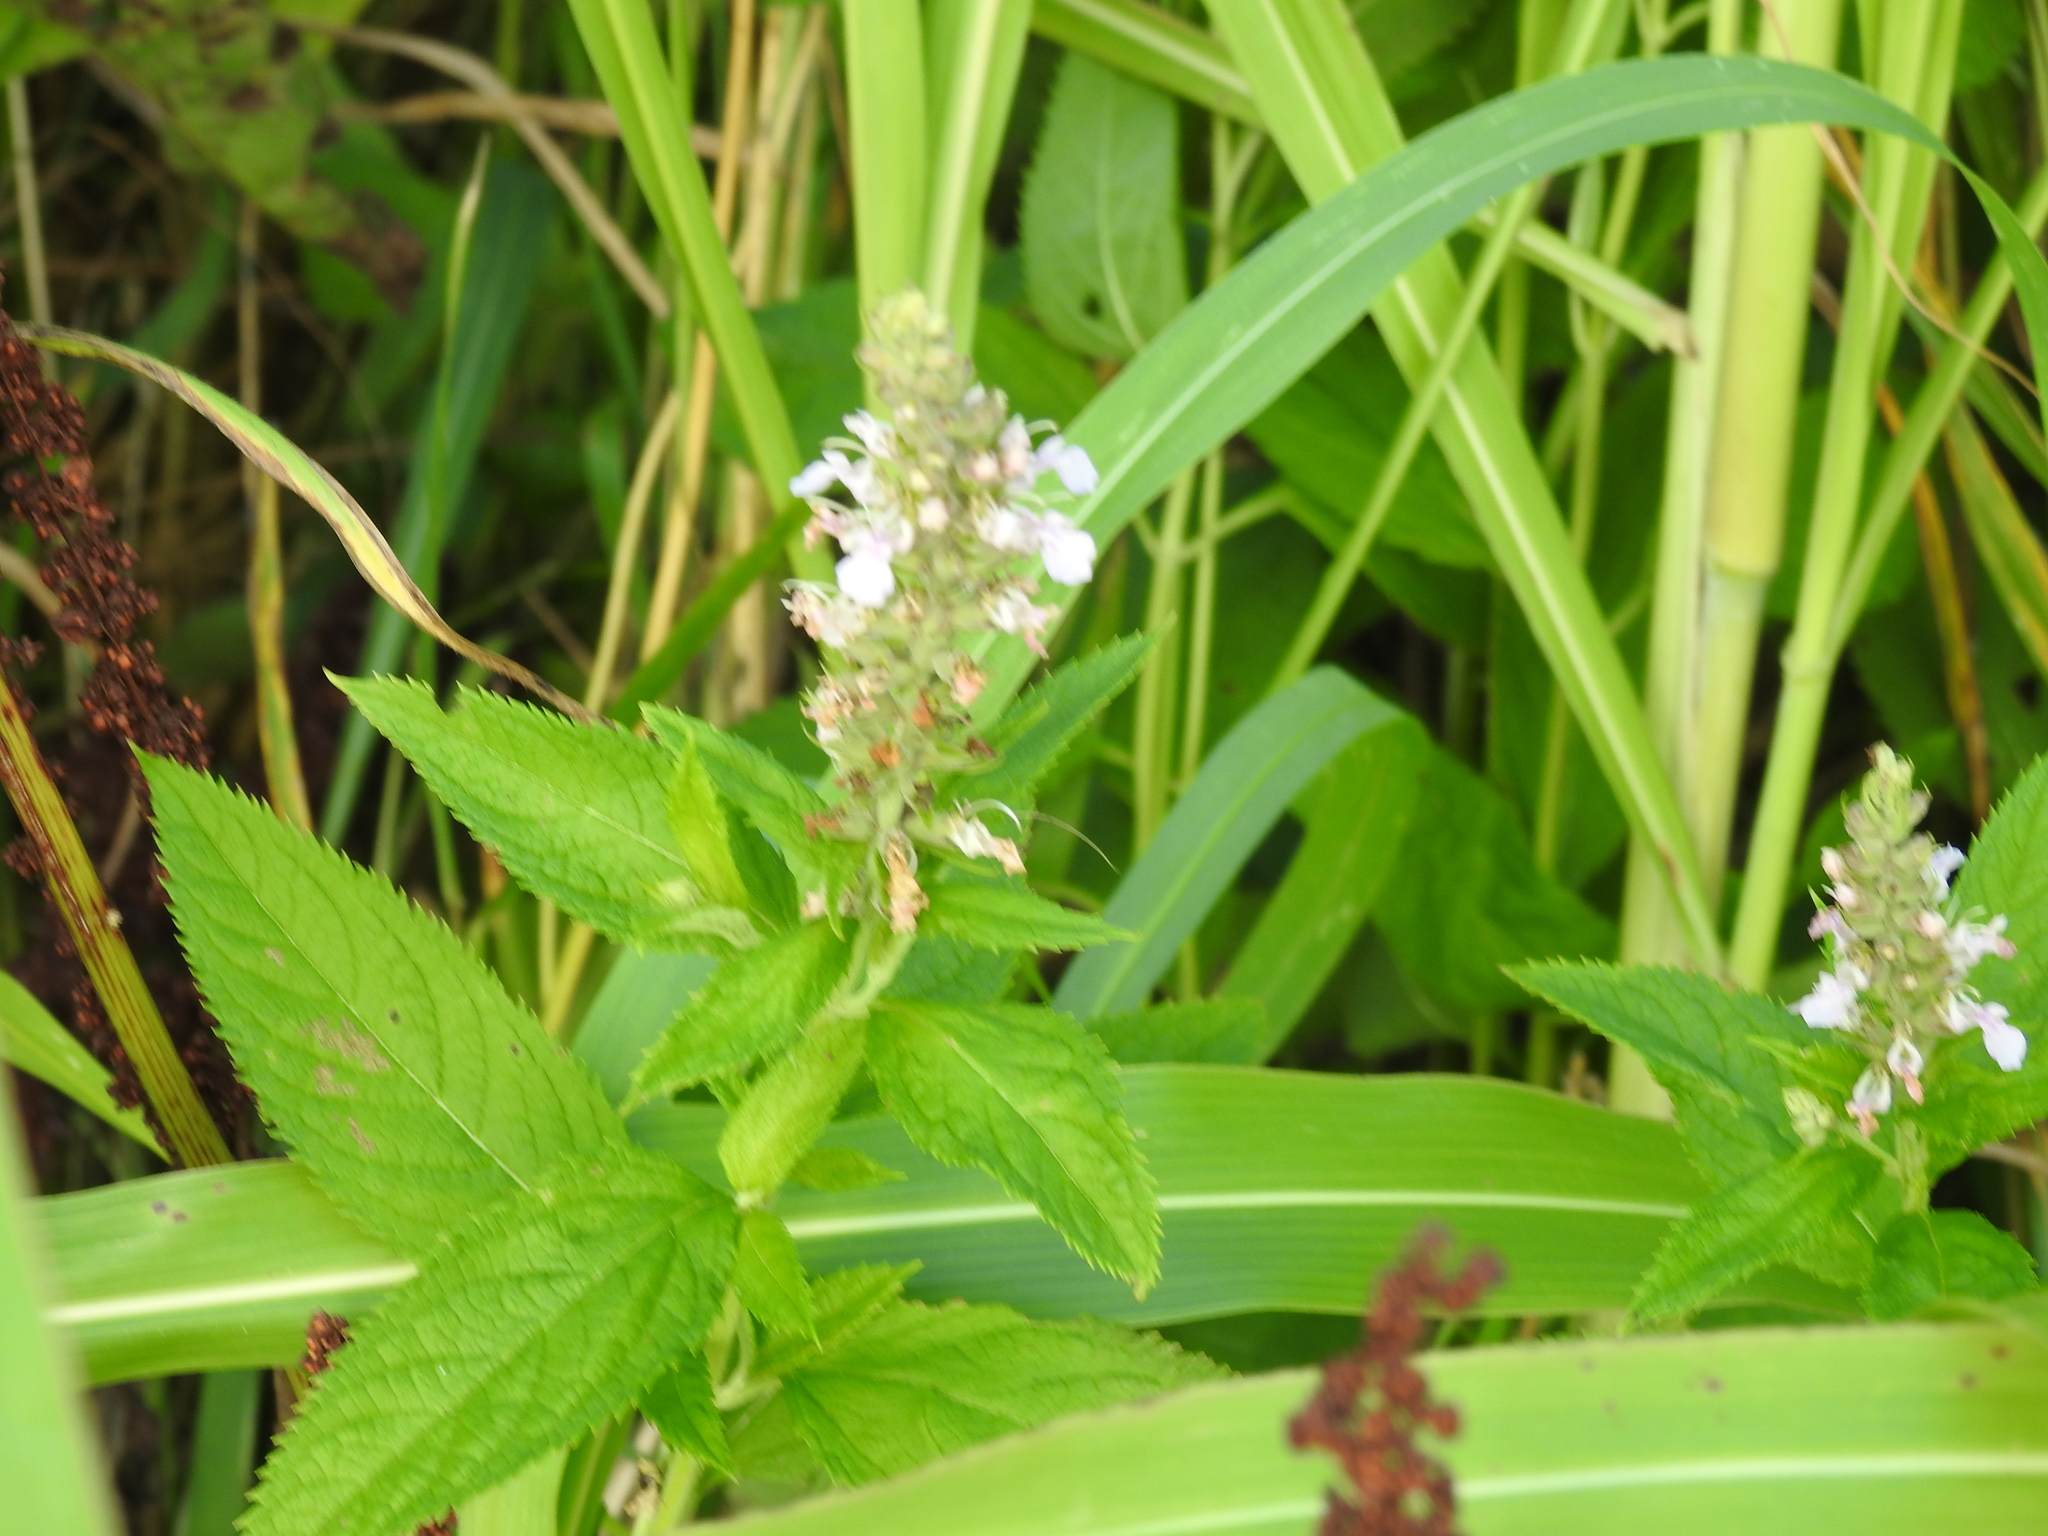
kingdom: Plantae
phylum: Tracheophyta
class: Magnoliopsida
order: Lamiales
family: Lamiaceae
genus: Teucrium
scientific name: Teucrium canadense
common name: American germander
